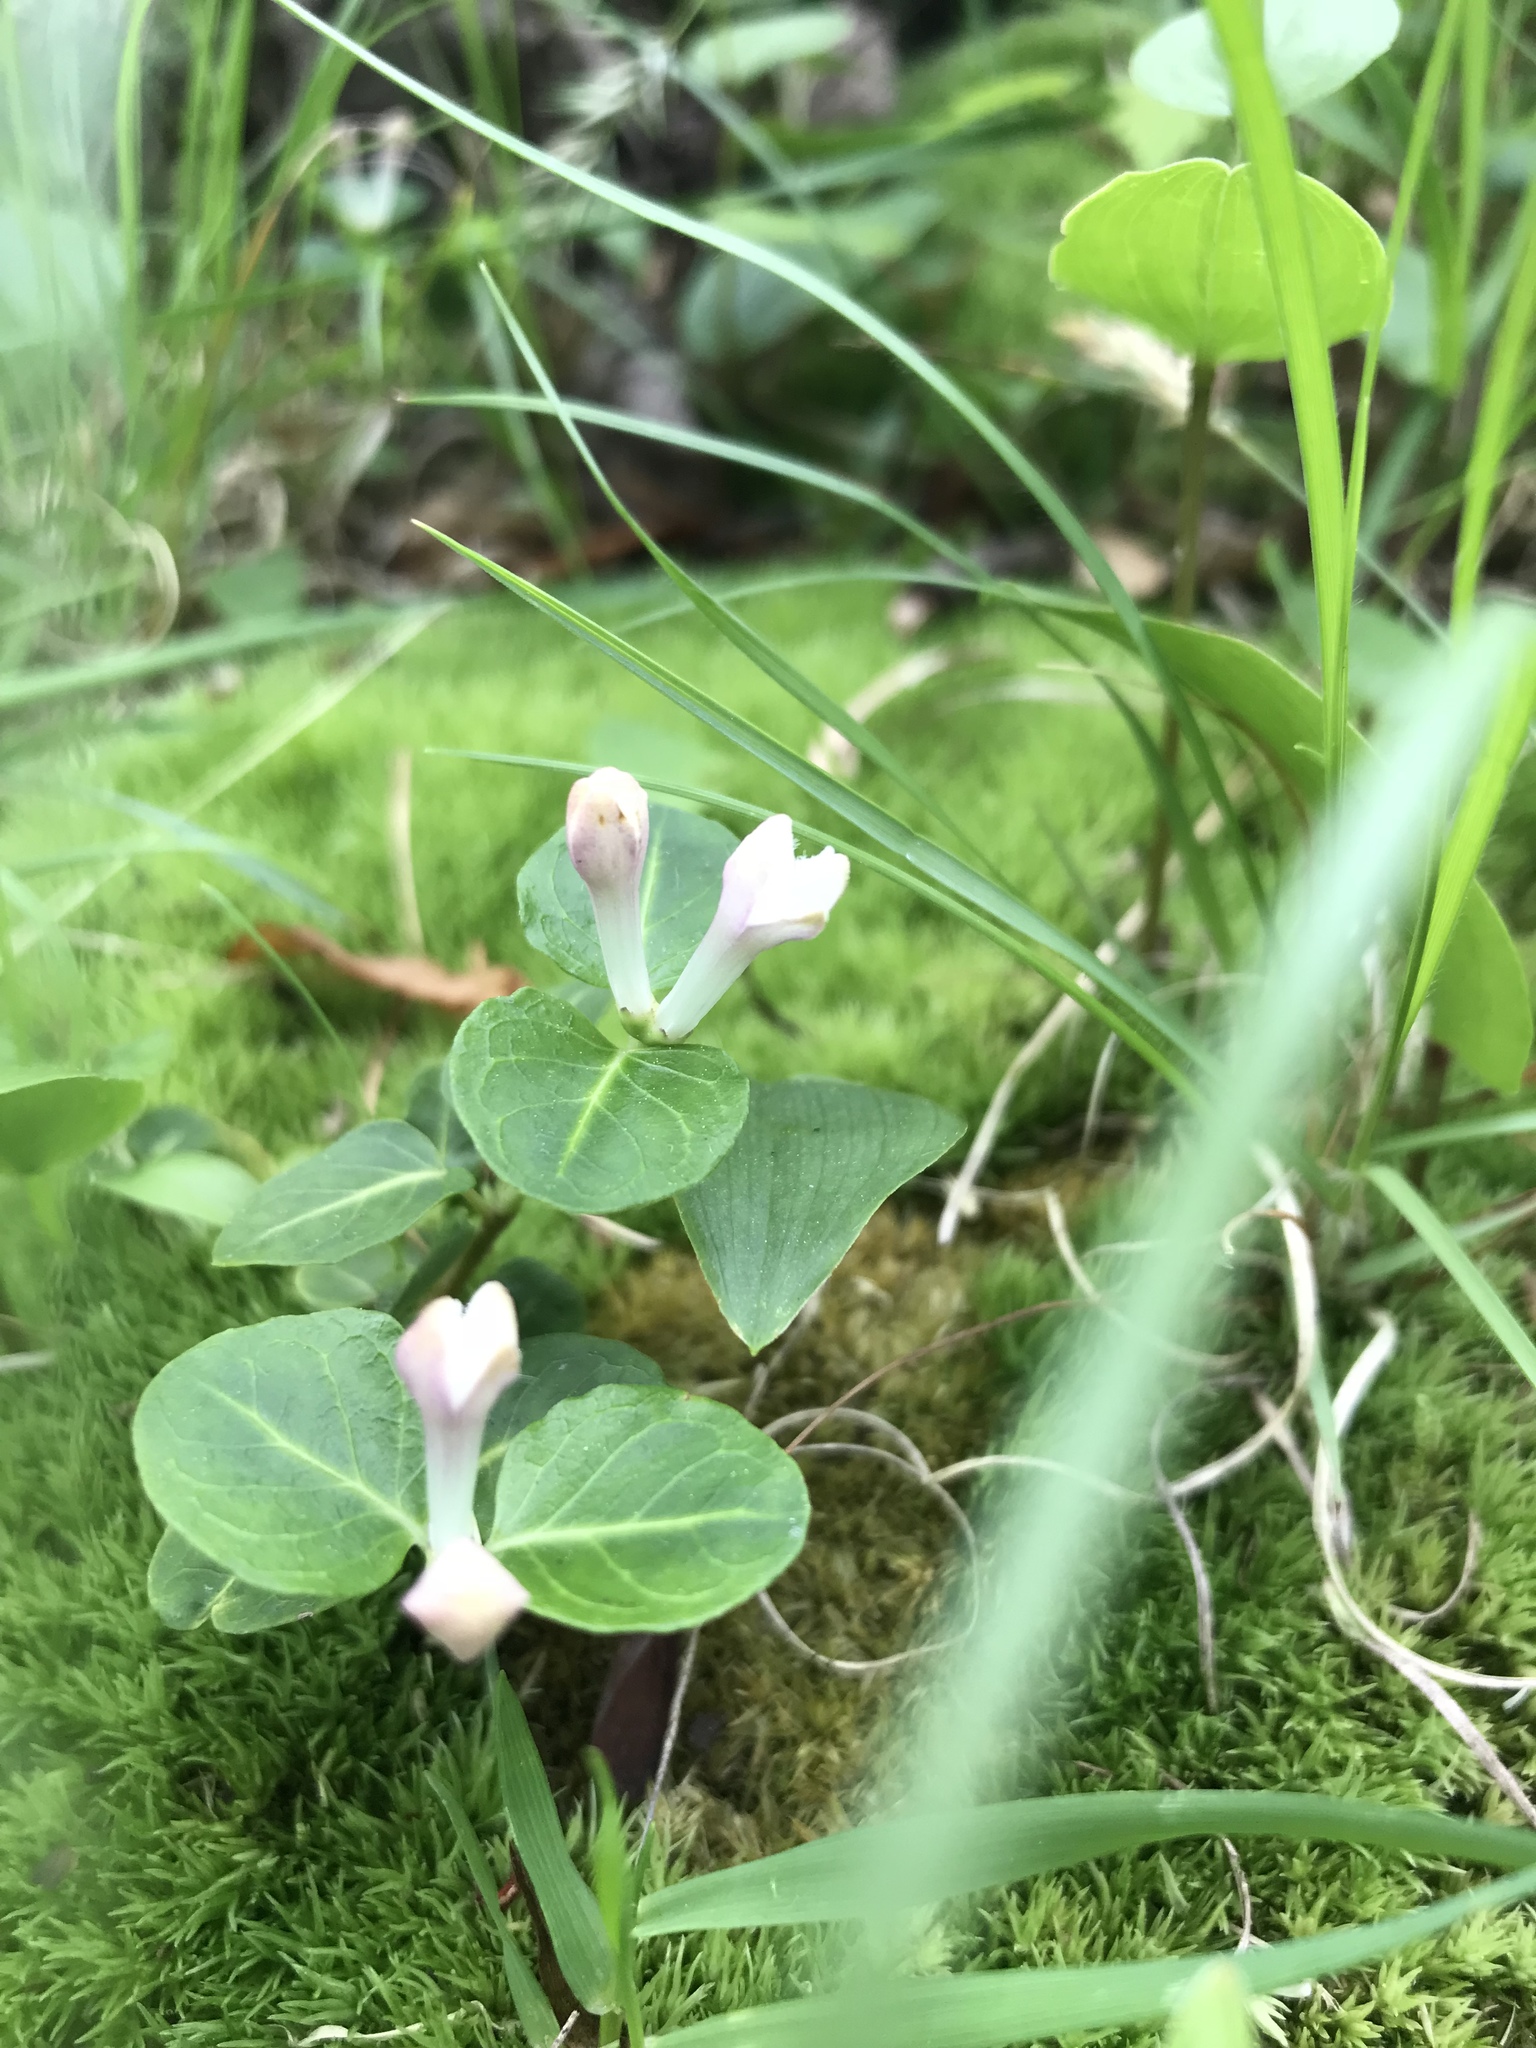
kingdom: Plantae
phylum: Tracheophyta
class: Magnoliopsida
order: Gentianales
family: Rubiaceae
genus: Mitchella
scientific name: Mitchella repens
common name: Partridge-berry
